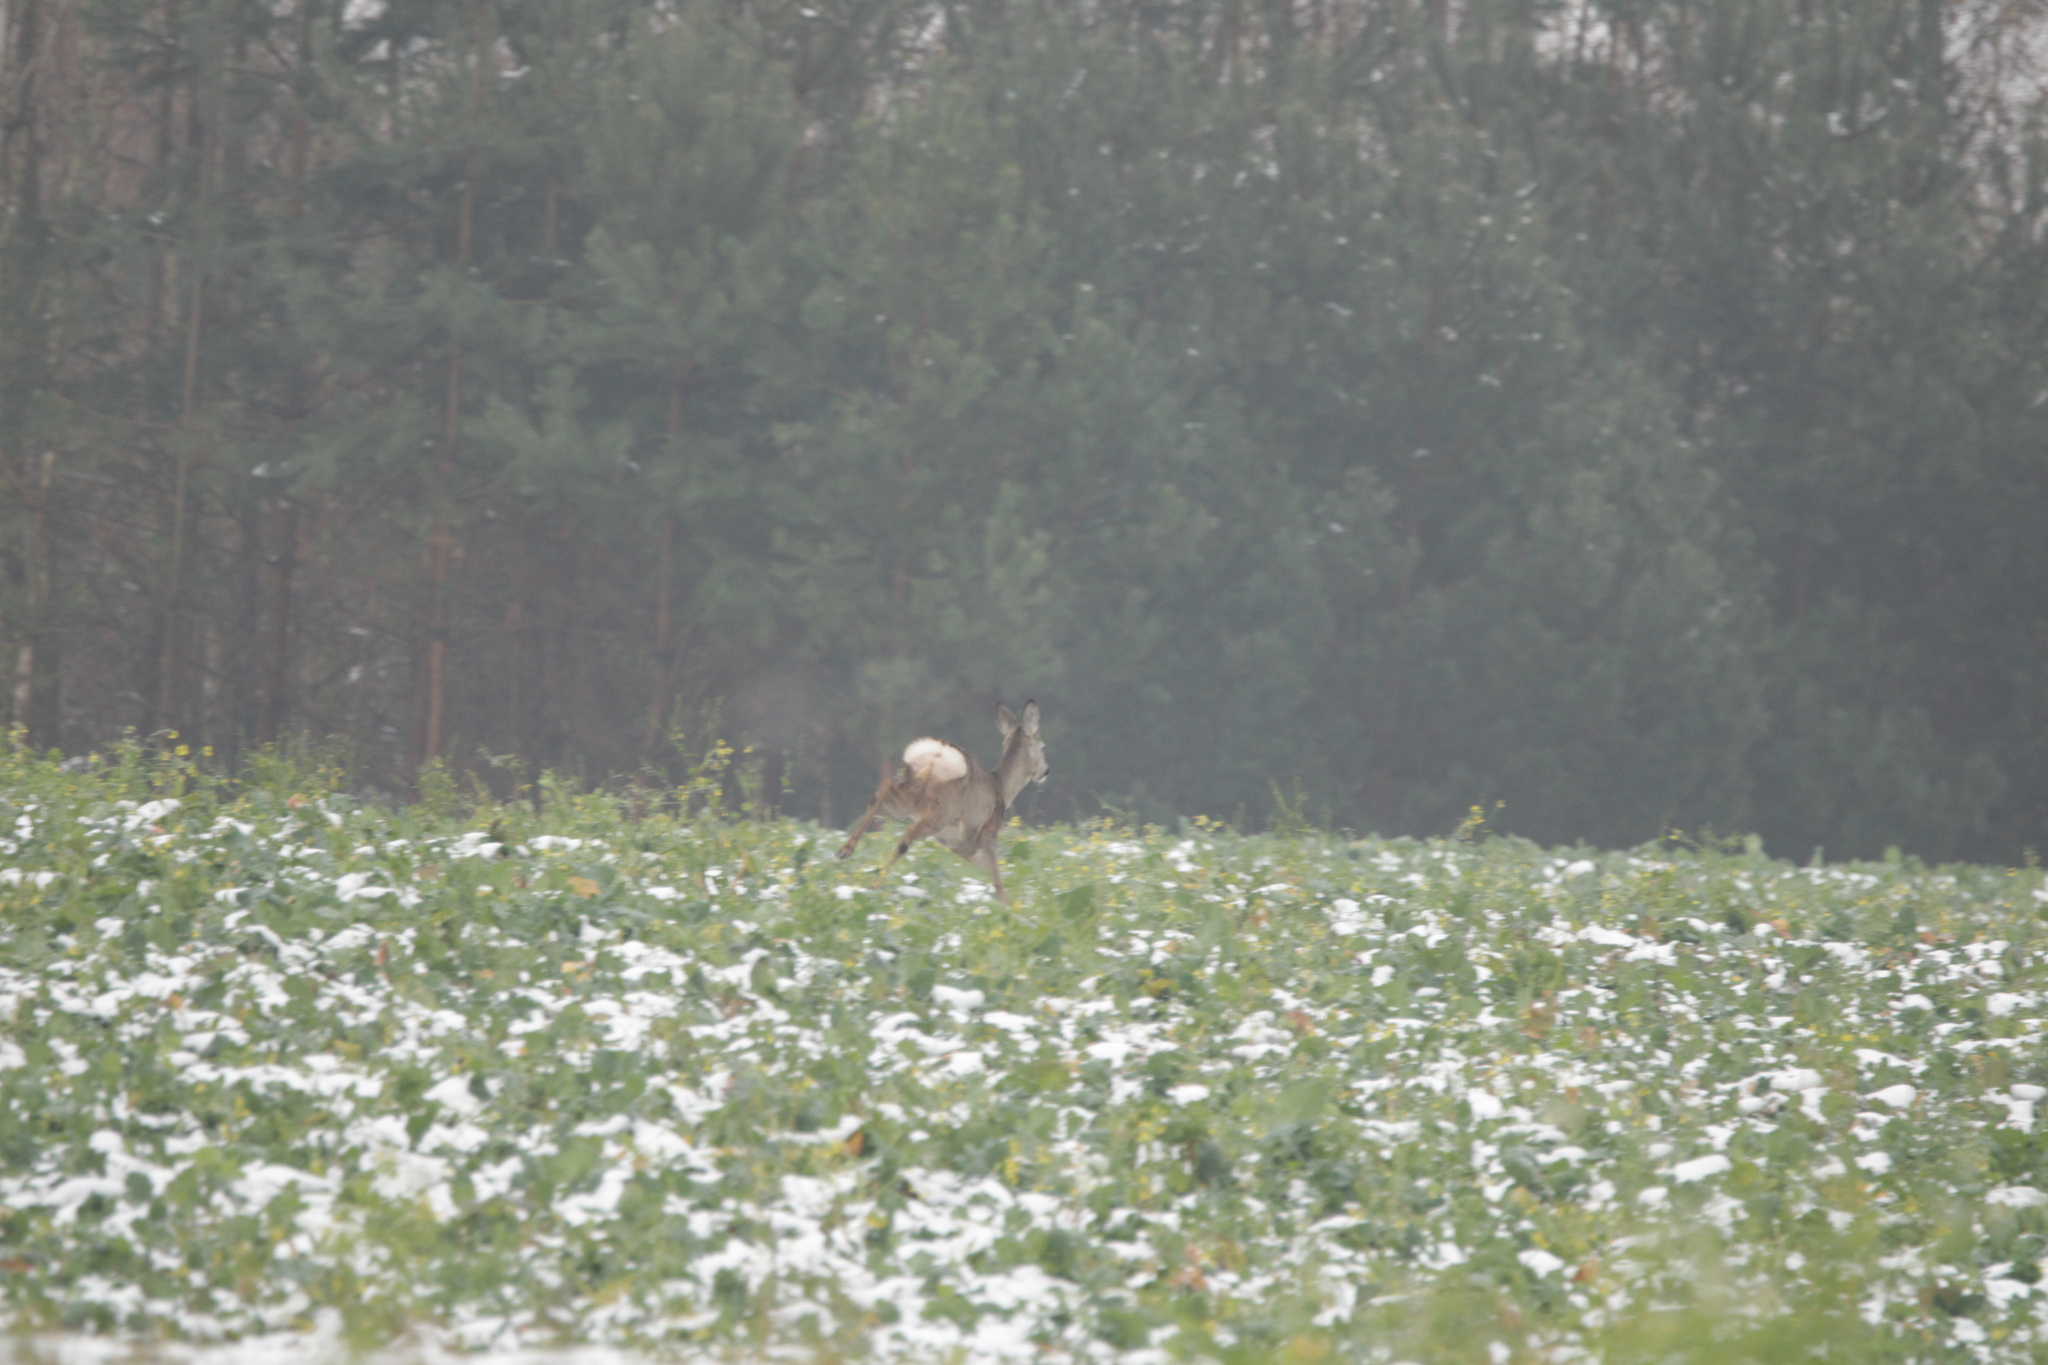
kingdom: Animalia
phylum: Chordata
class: Mammalia
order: Artiodactyla
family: Cervidae
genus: Capreolus
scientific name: Capreolus capreolus
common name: Western roe deer
